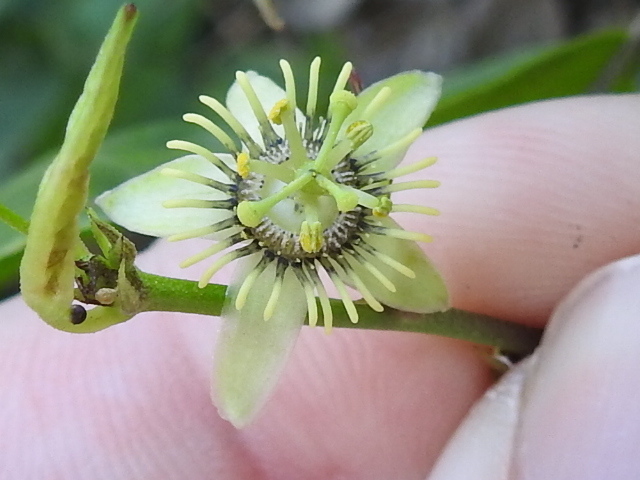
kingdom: Plantae
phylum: Tracheophyta
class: Magnoliopsida
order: Malpighiales
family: Passifloraceae
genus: Passiflora
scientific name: Passiflora pallida
